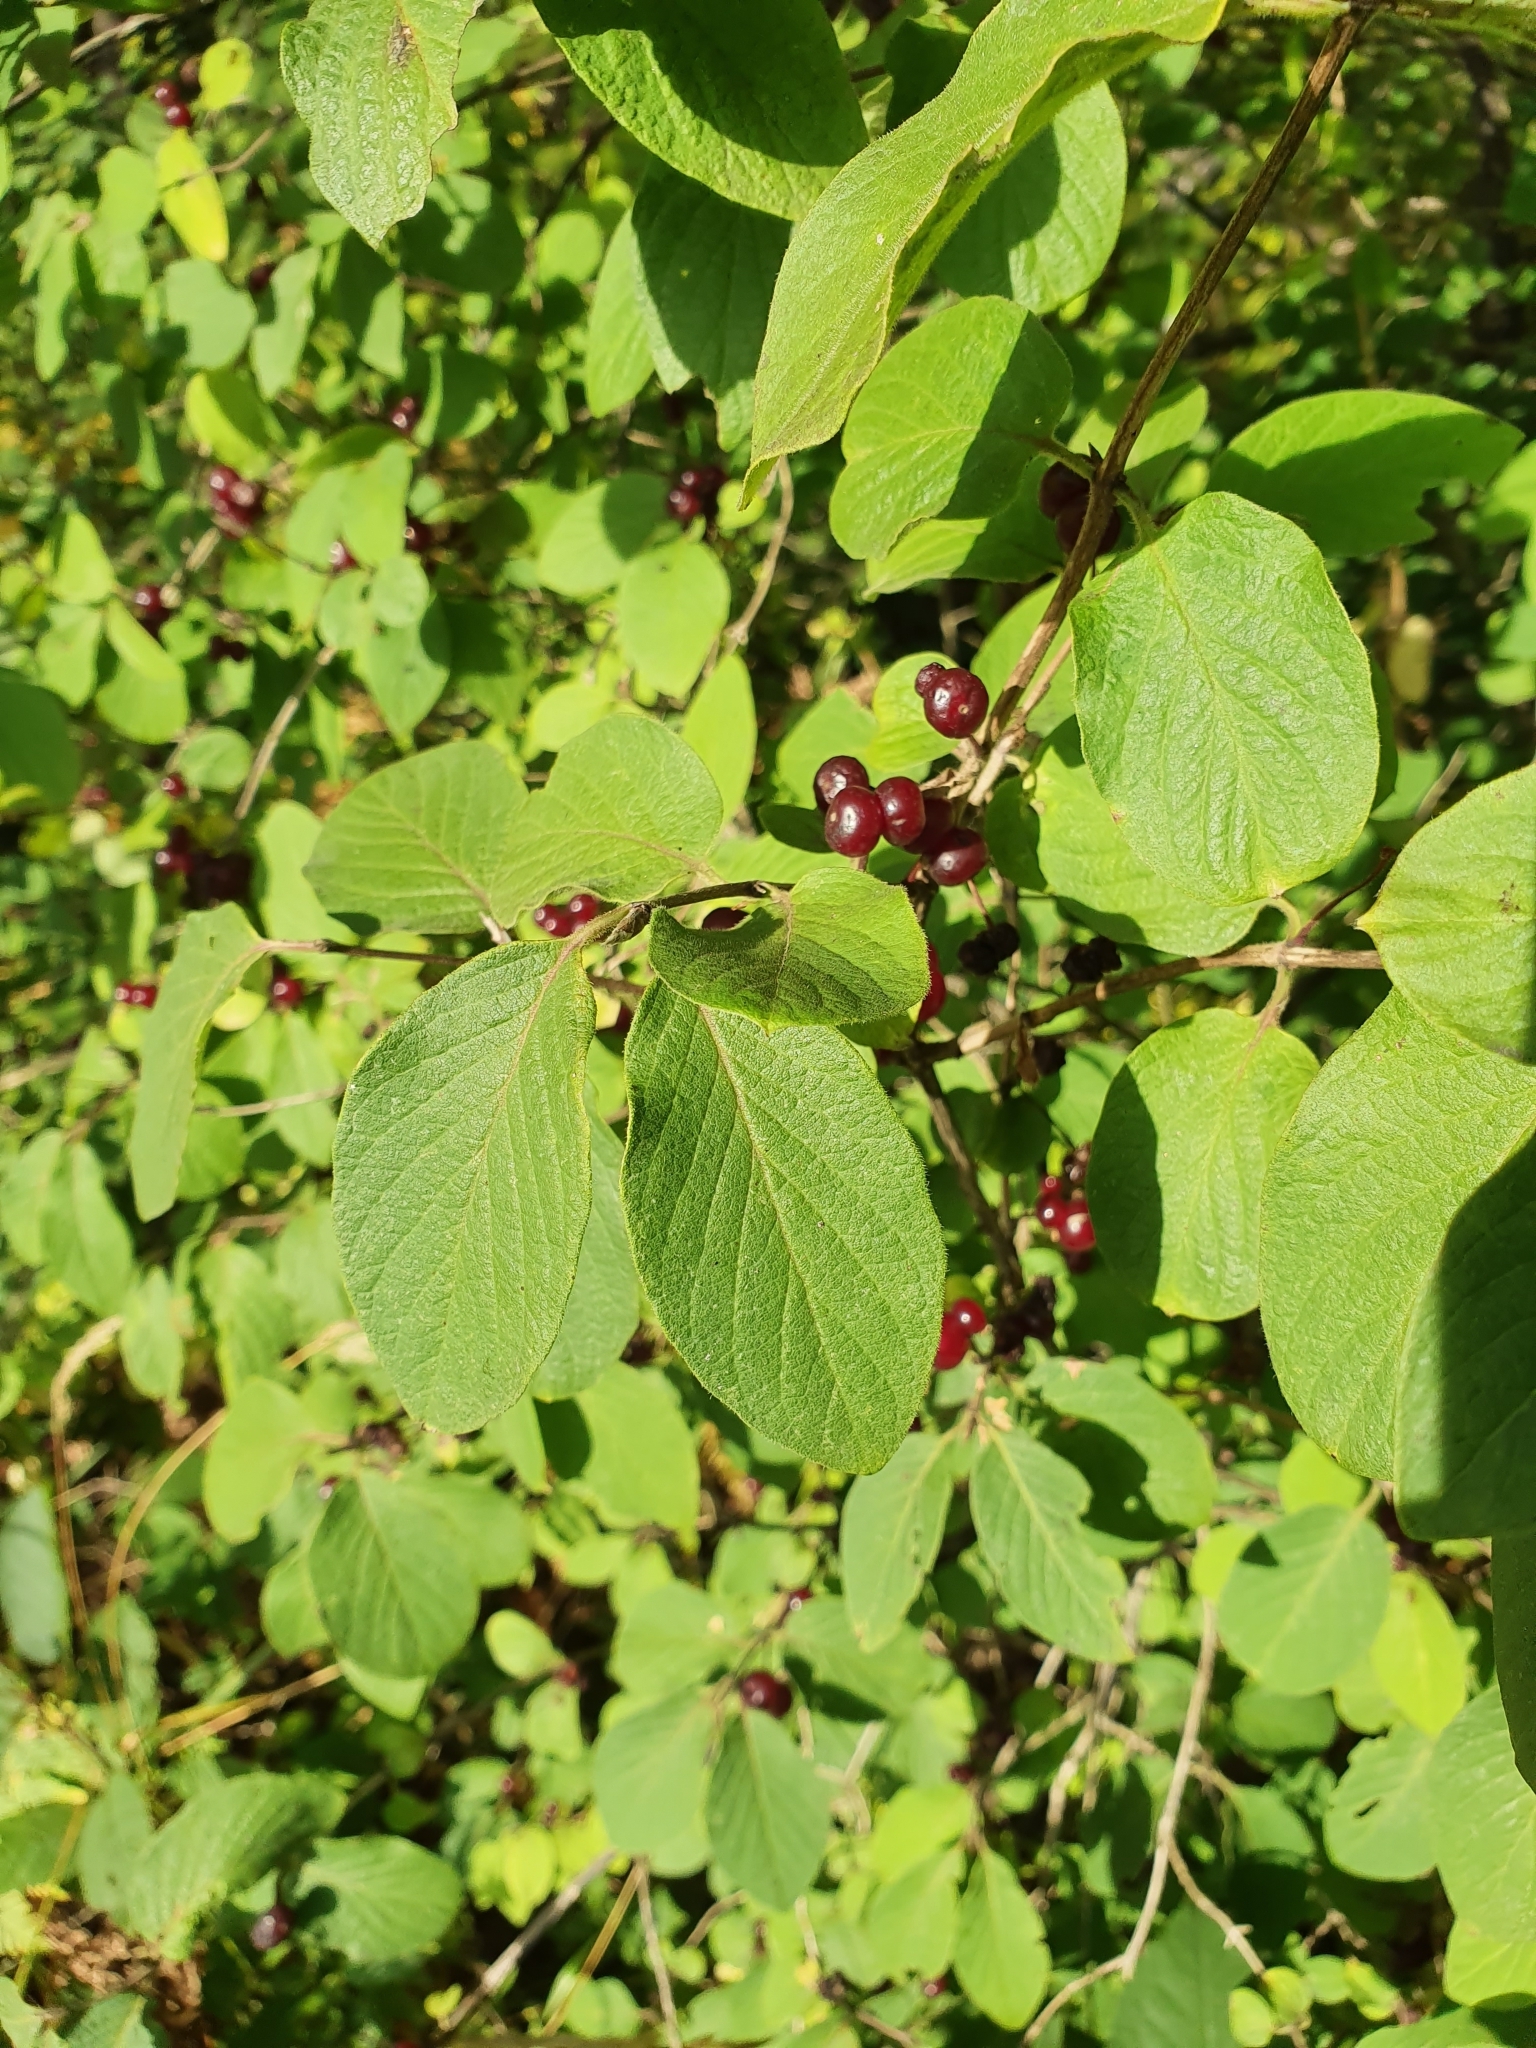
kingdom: Plantae
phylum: Tracheophyta
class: Magnoliopsida
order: Dipsacales
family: Caprifoliaceae
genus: Lonicera
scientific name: Lonicera xylosteum
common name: Fly honeysuckle
